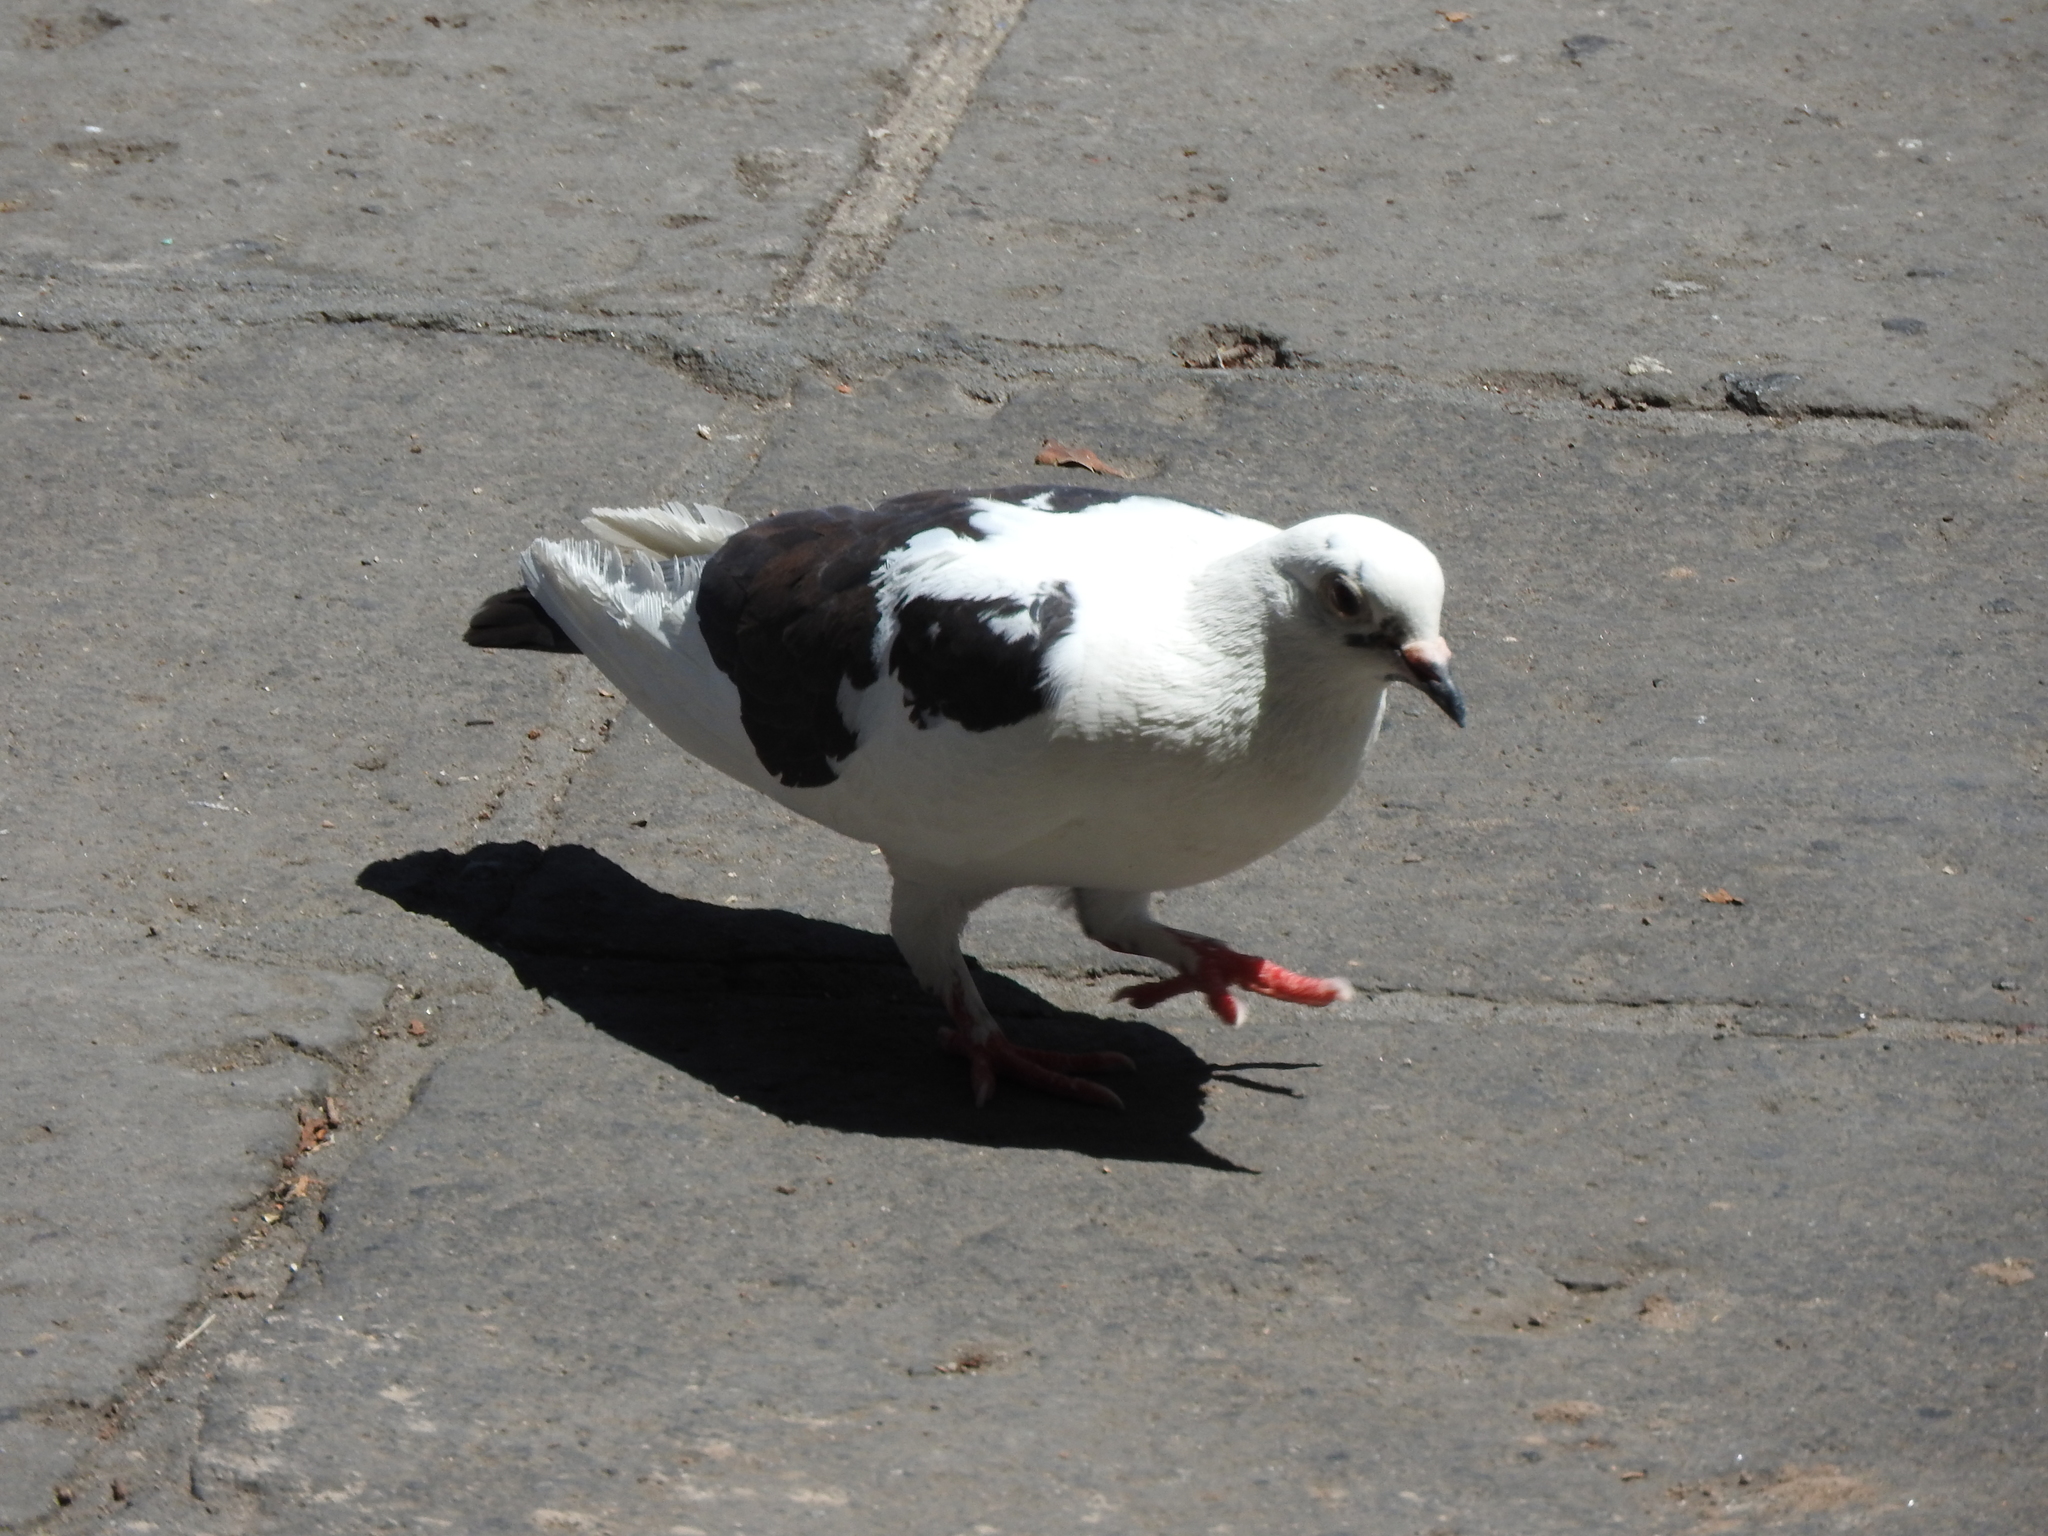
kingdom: Animalia
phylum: Chordata
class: Aves
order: Columbiformes
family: Columbidae
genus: Columba
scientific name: Columba livia
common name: Rock pigeon
